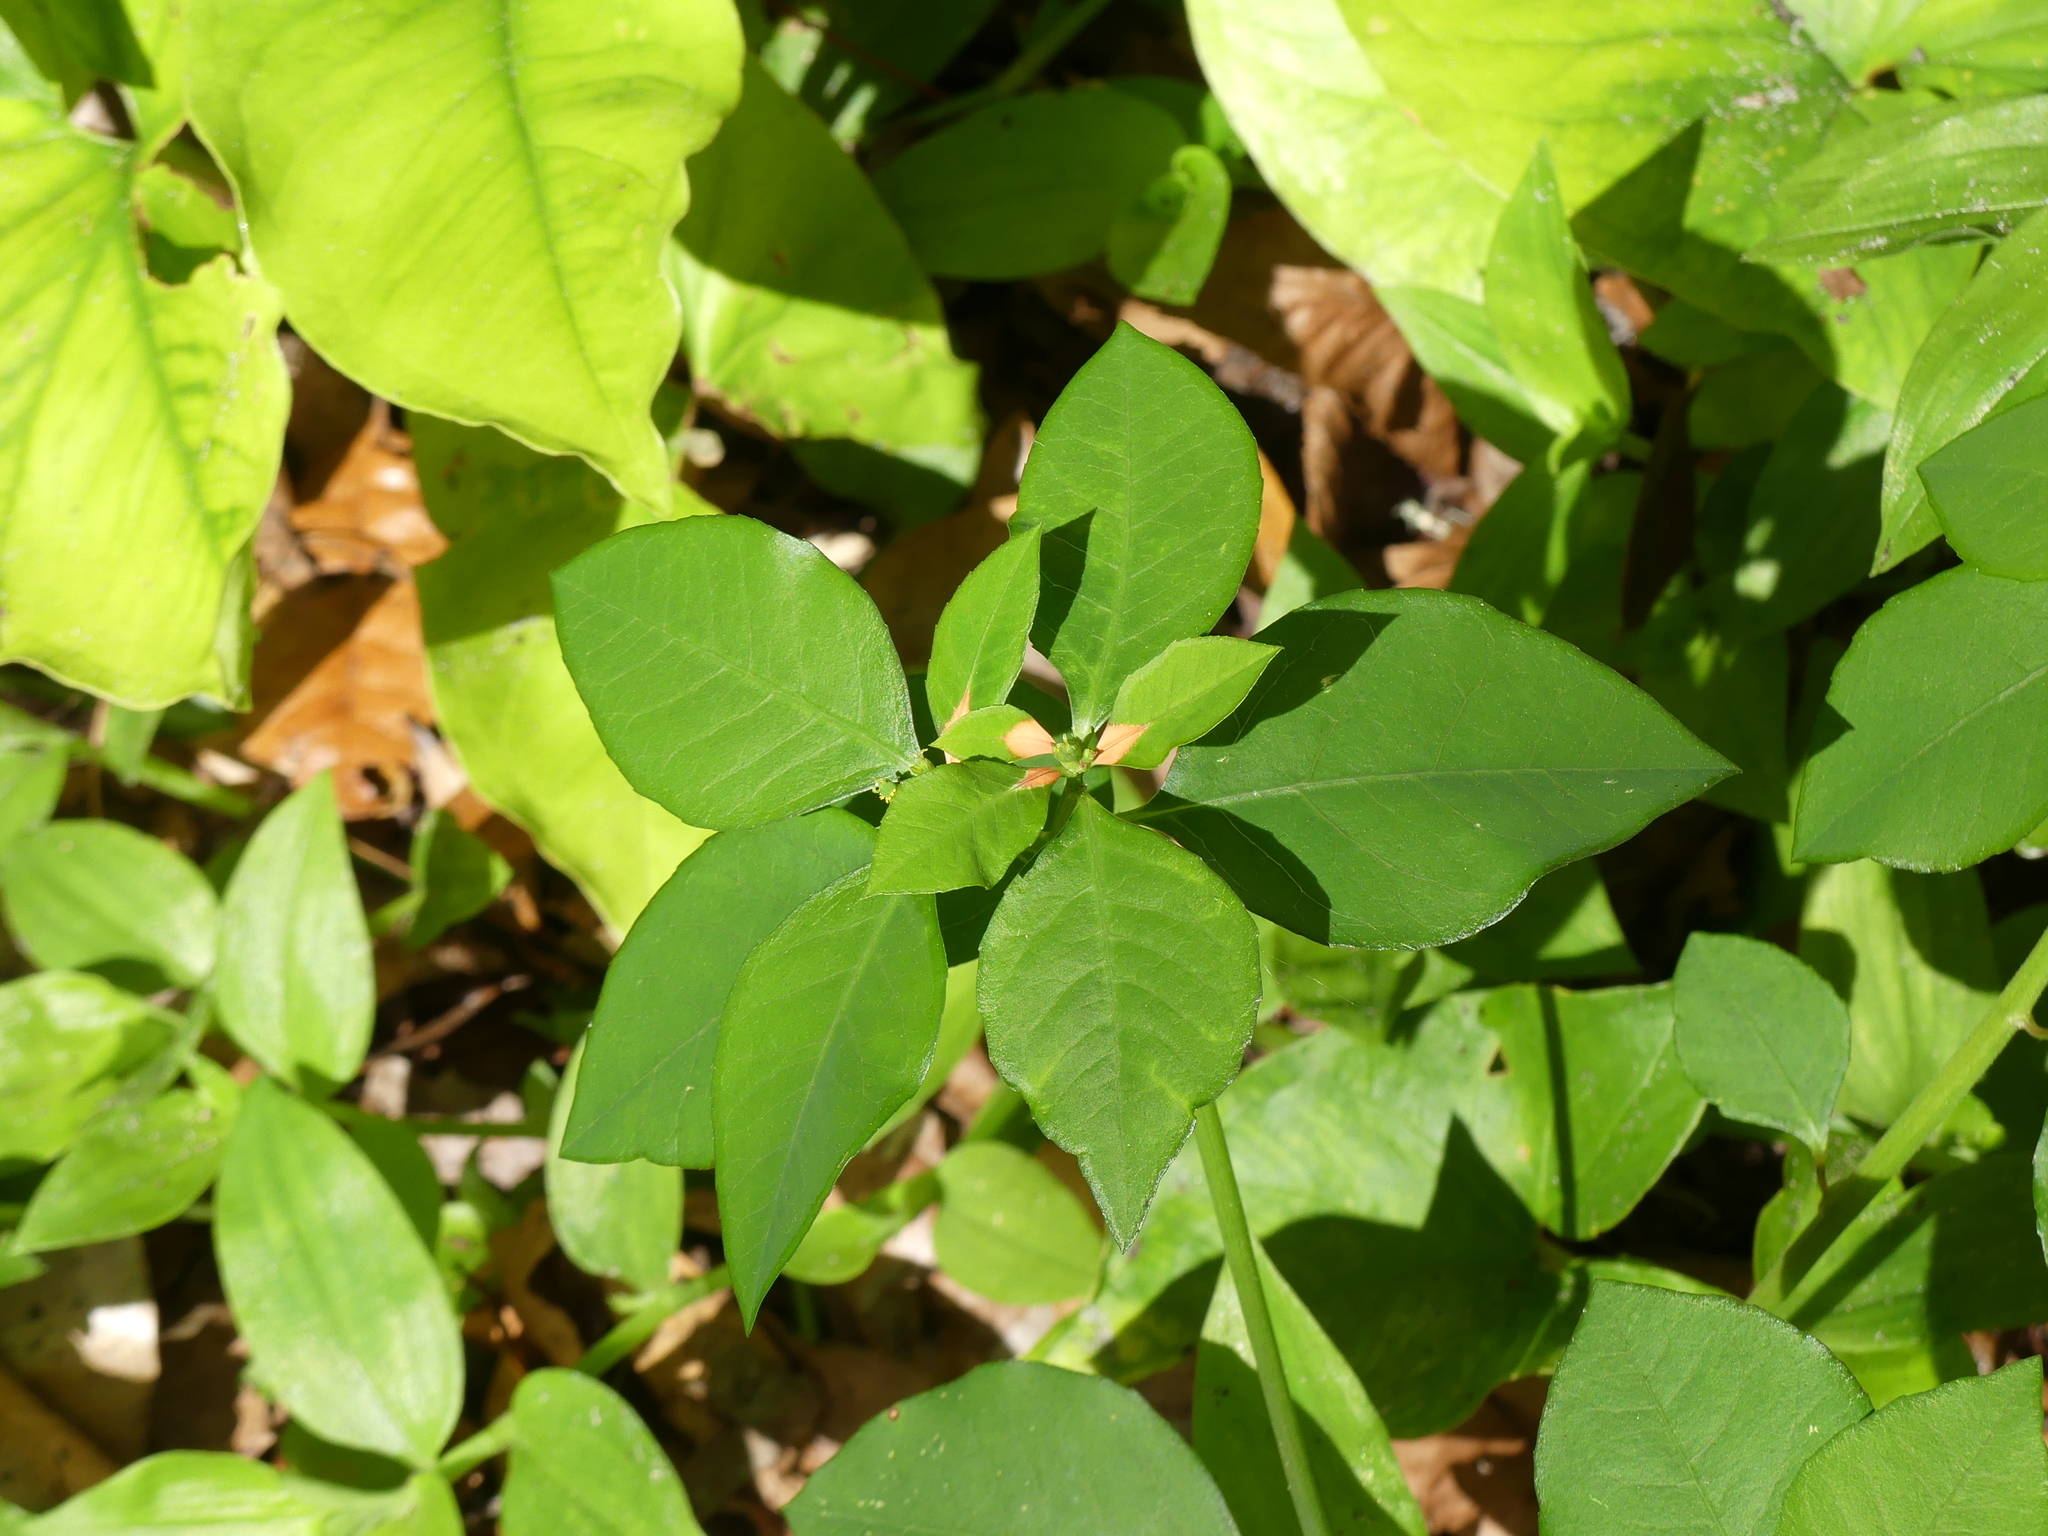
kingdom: Plantae
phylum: Tracheophyta
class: Magnoliopsida
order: Malpighiales
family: Euphorbiaceae
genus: Euphorbia
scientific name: Euphorbia heterophylla
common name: Mexican fireplant
